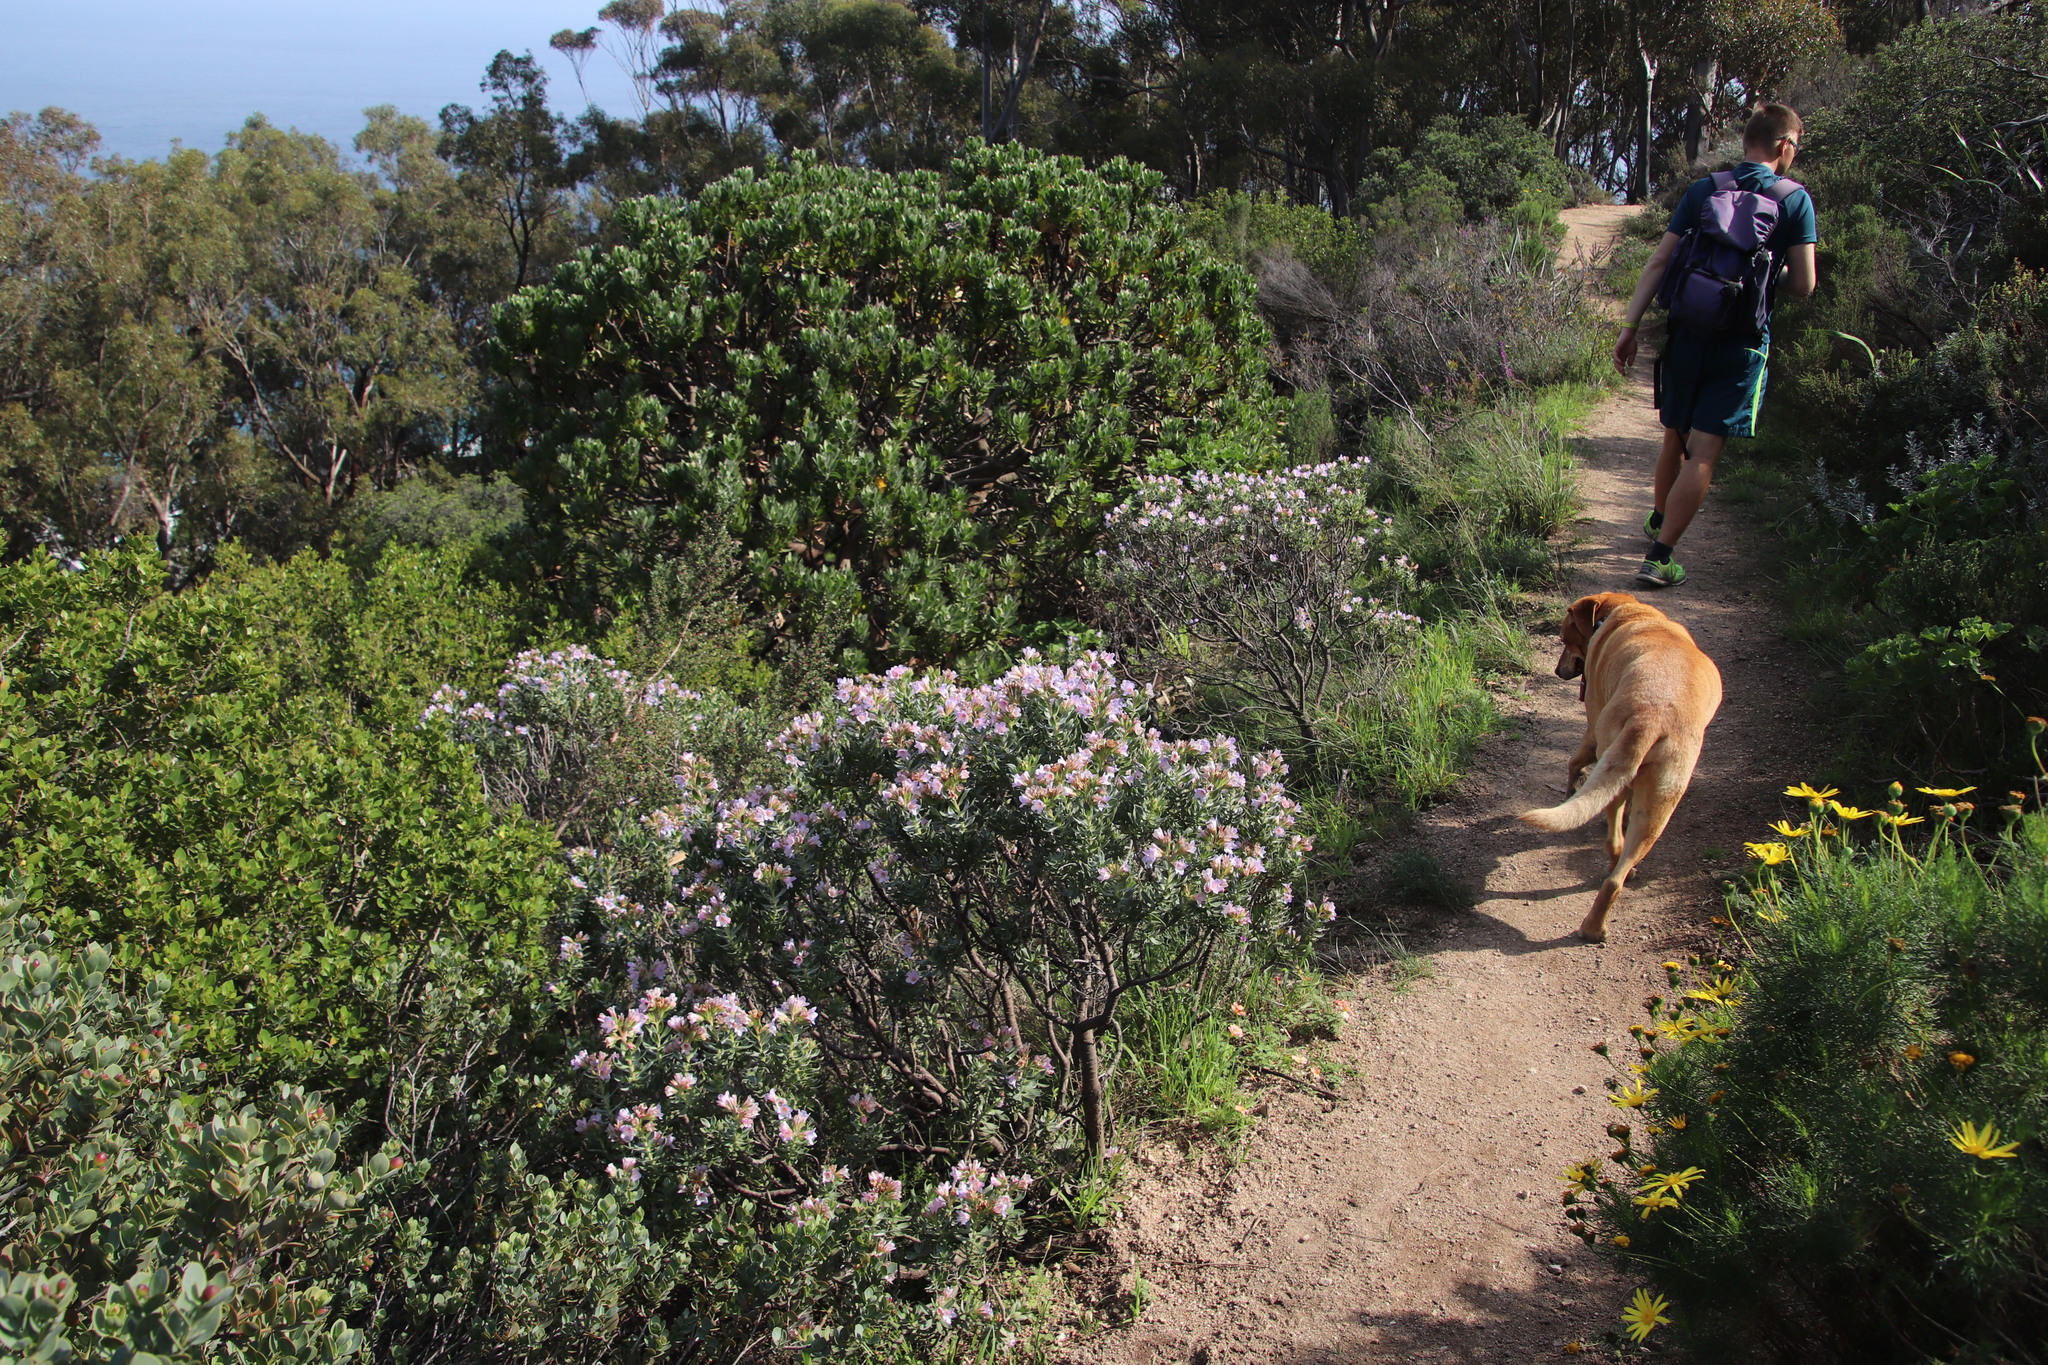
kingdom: Plantae
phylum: Tracheophyta
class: Magnoliopsida
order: Boraginales
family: Boraginaceae
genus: Lobostemon
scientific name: Lobostemon fruticosus
